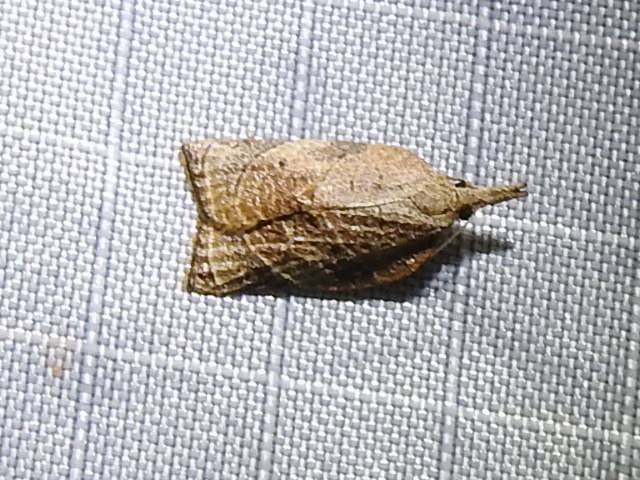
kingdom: Animalia
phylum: Arthropoda
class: Insecta
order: Lepidoptera
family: Tortricidae
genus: Platynota
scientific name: Platynota rostrana
